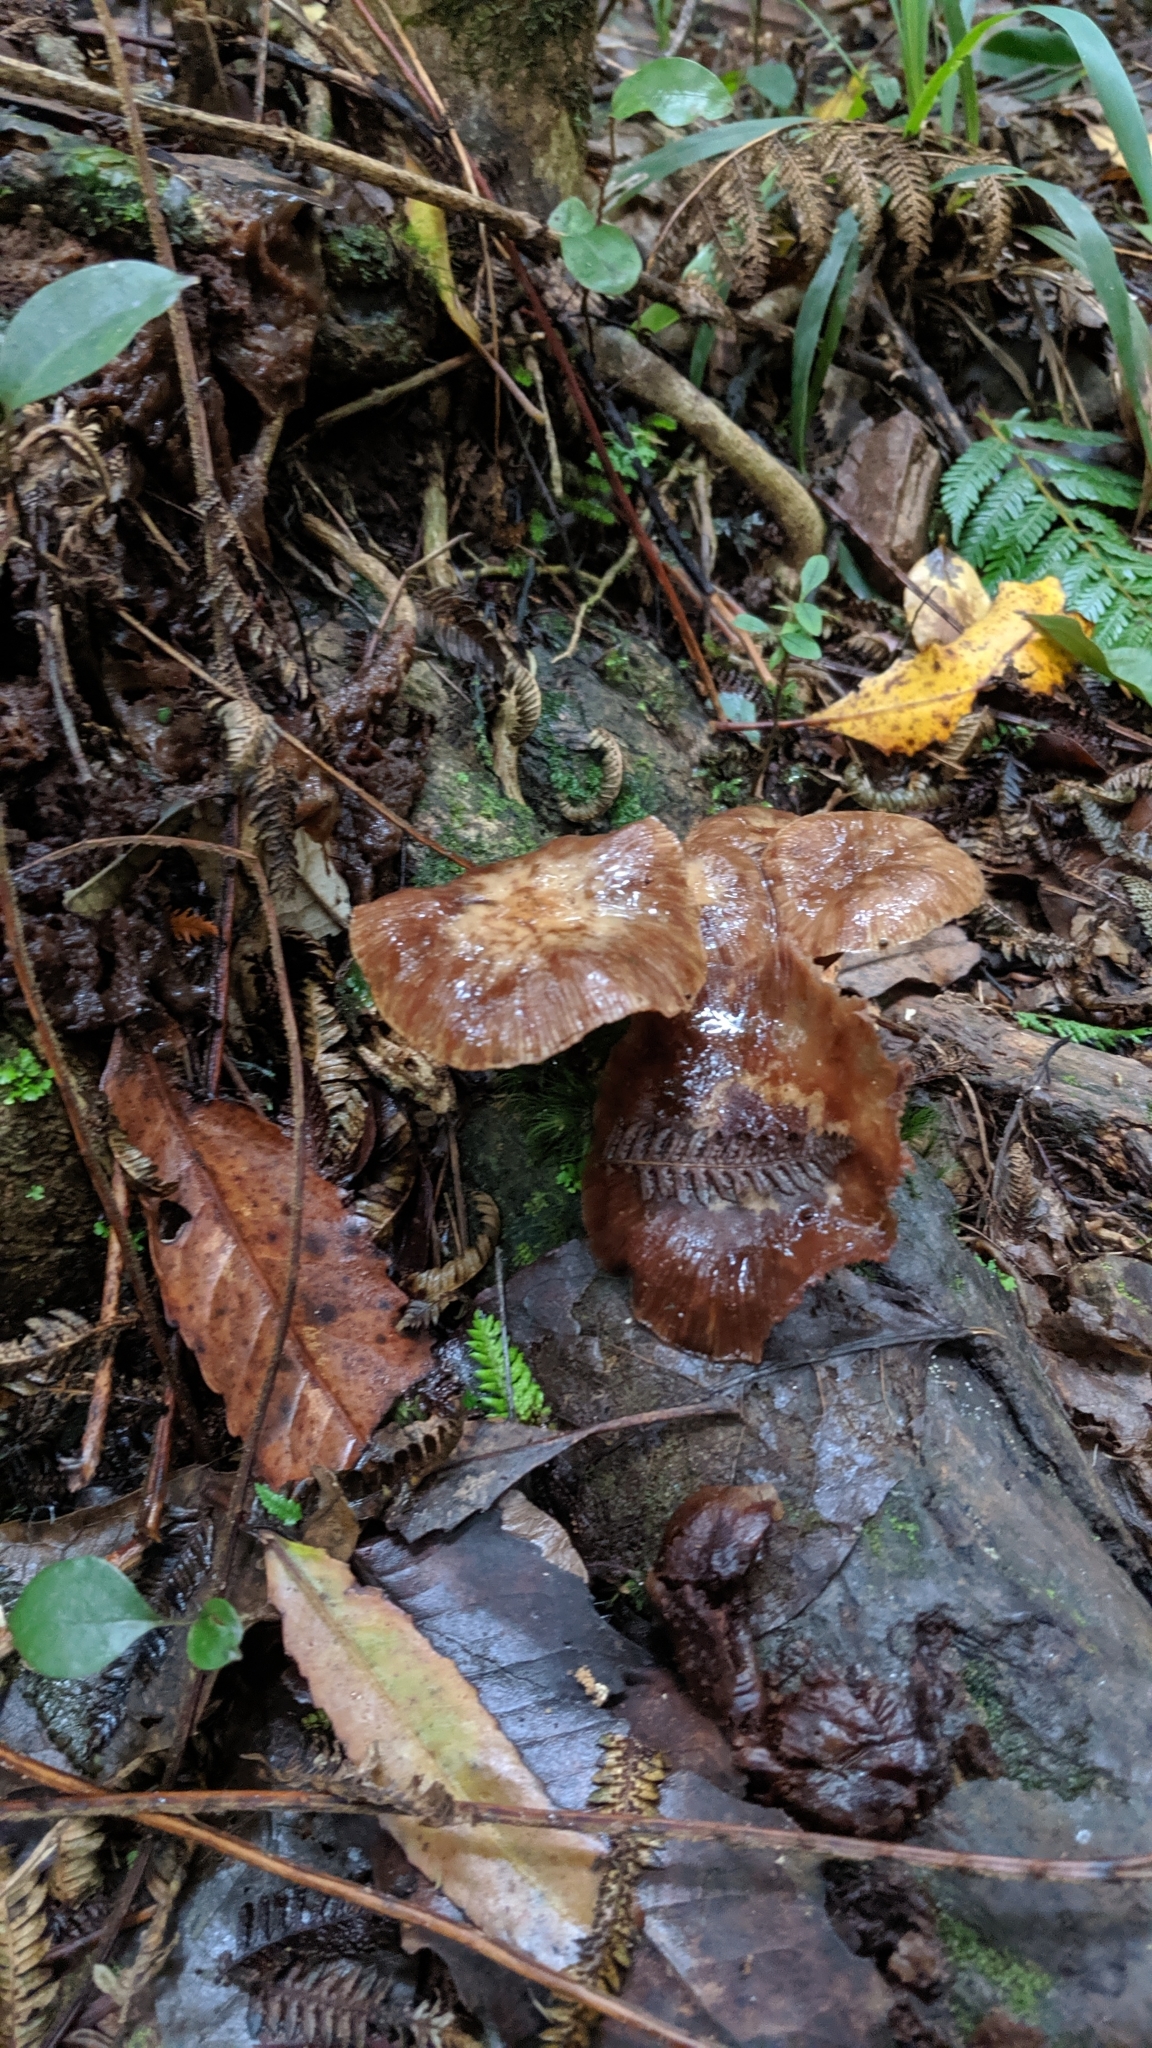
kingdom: Fungi
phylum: Basidiomycota
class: Agaricomycetes
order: Agaricales
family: Physalacriaceae
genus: Armillaria
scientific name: Armillaria novae-zelandiae
